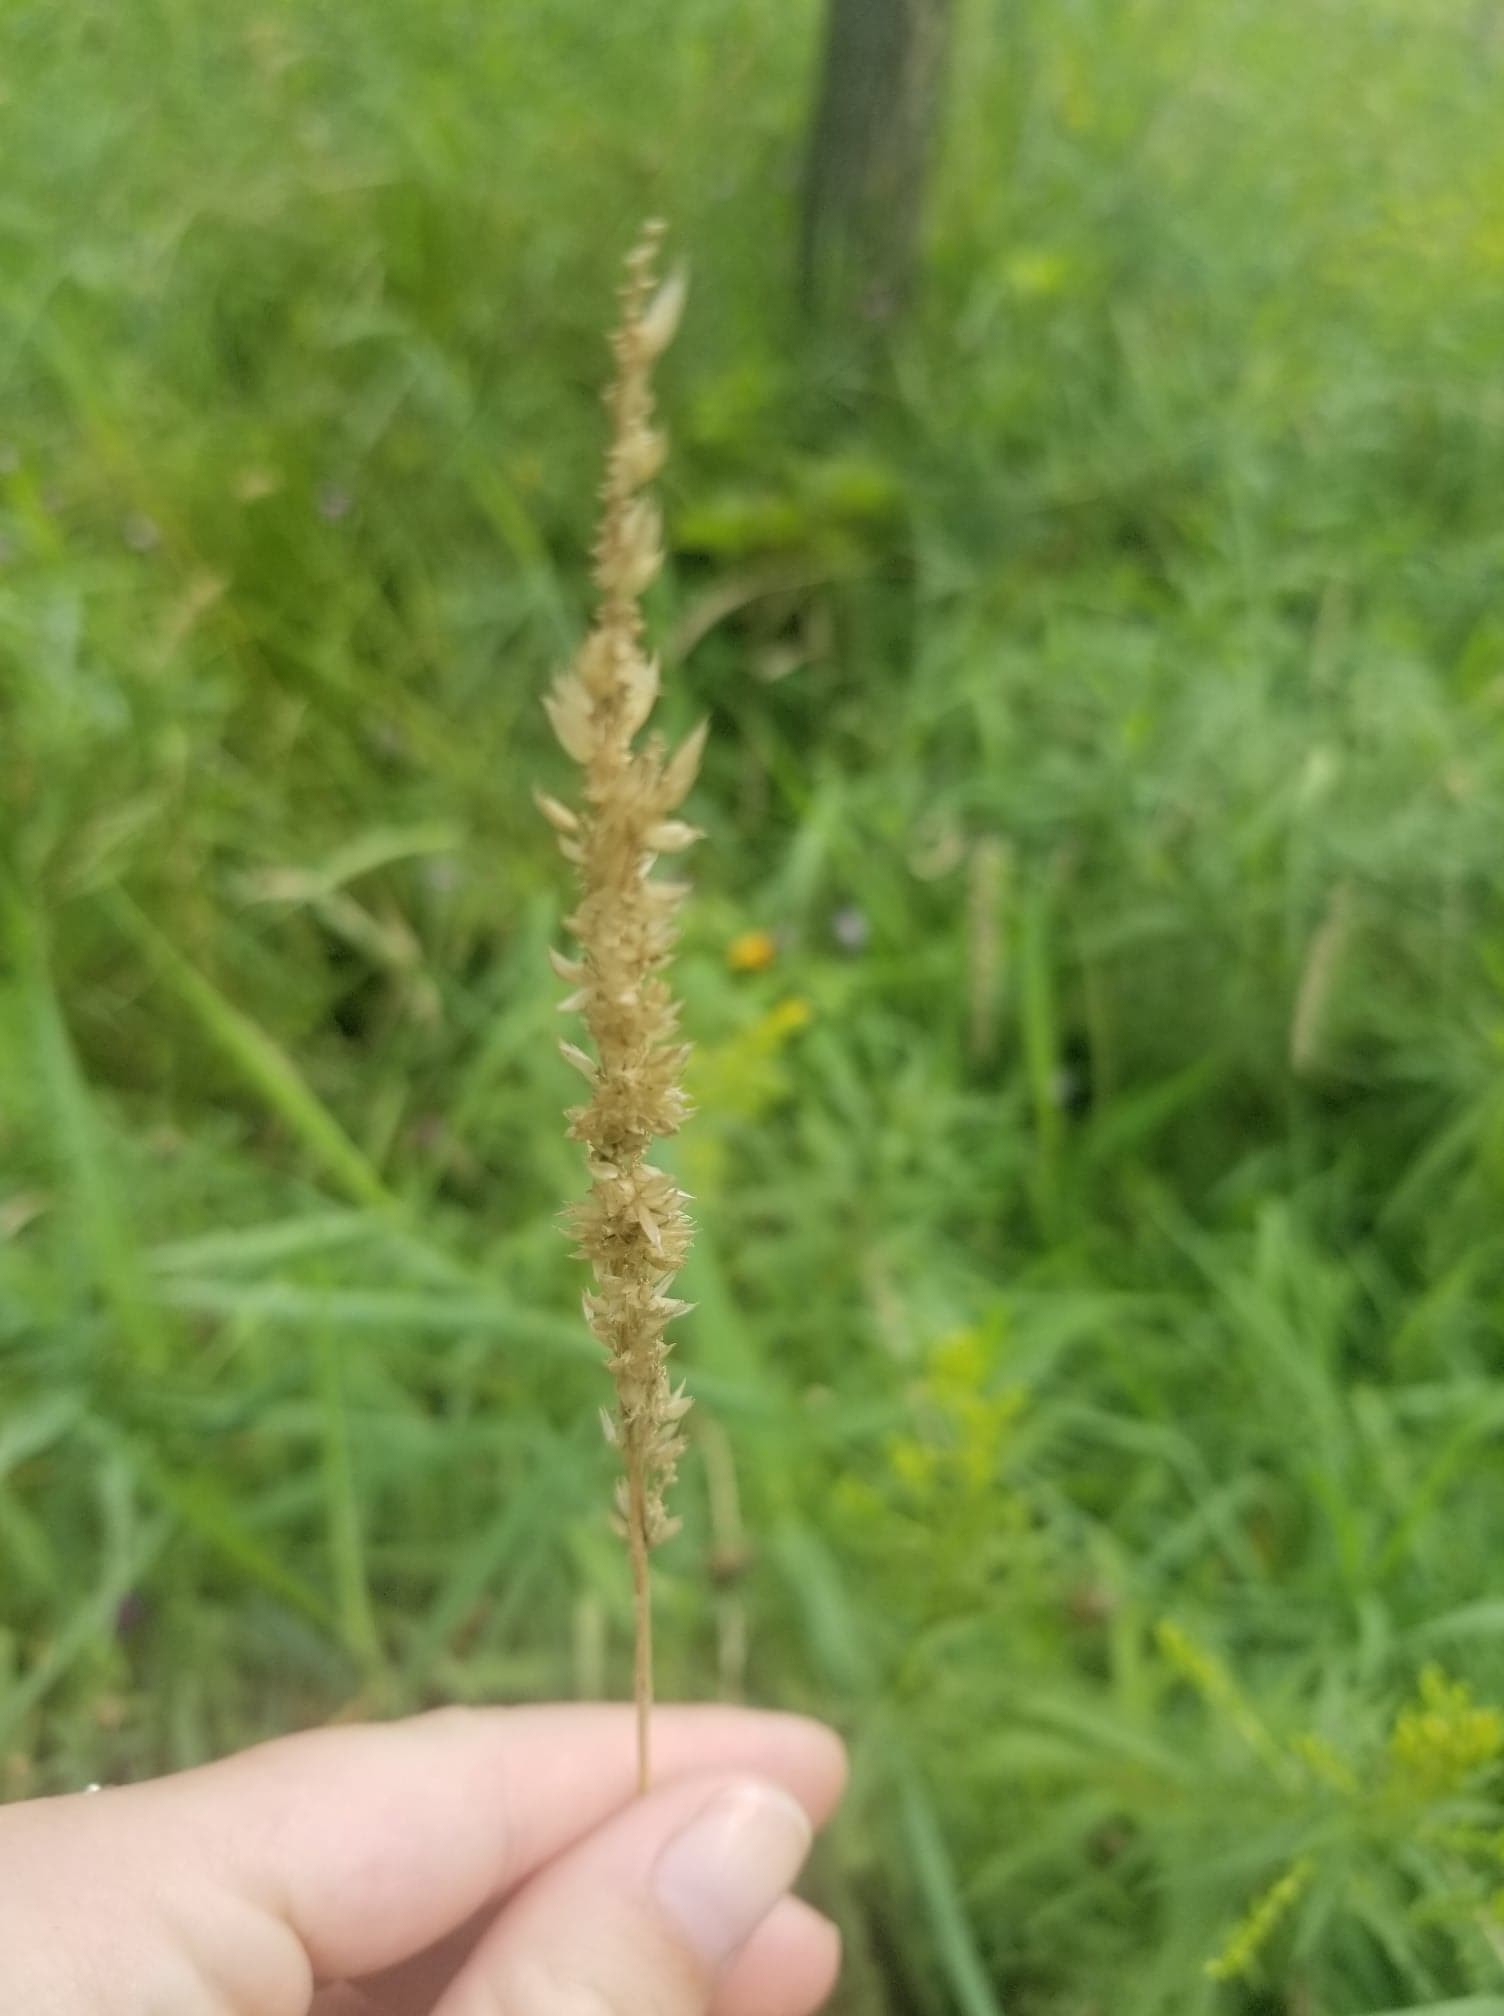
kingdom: Plantae
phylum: Tracheophyta
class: Liliopsida
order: Poales
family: Poaceae
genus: Phalaris
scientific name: Phalaris arundinacea
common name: Reed canary-grass
